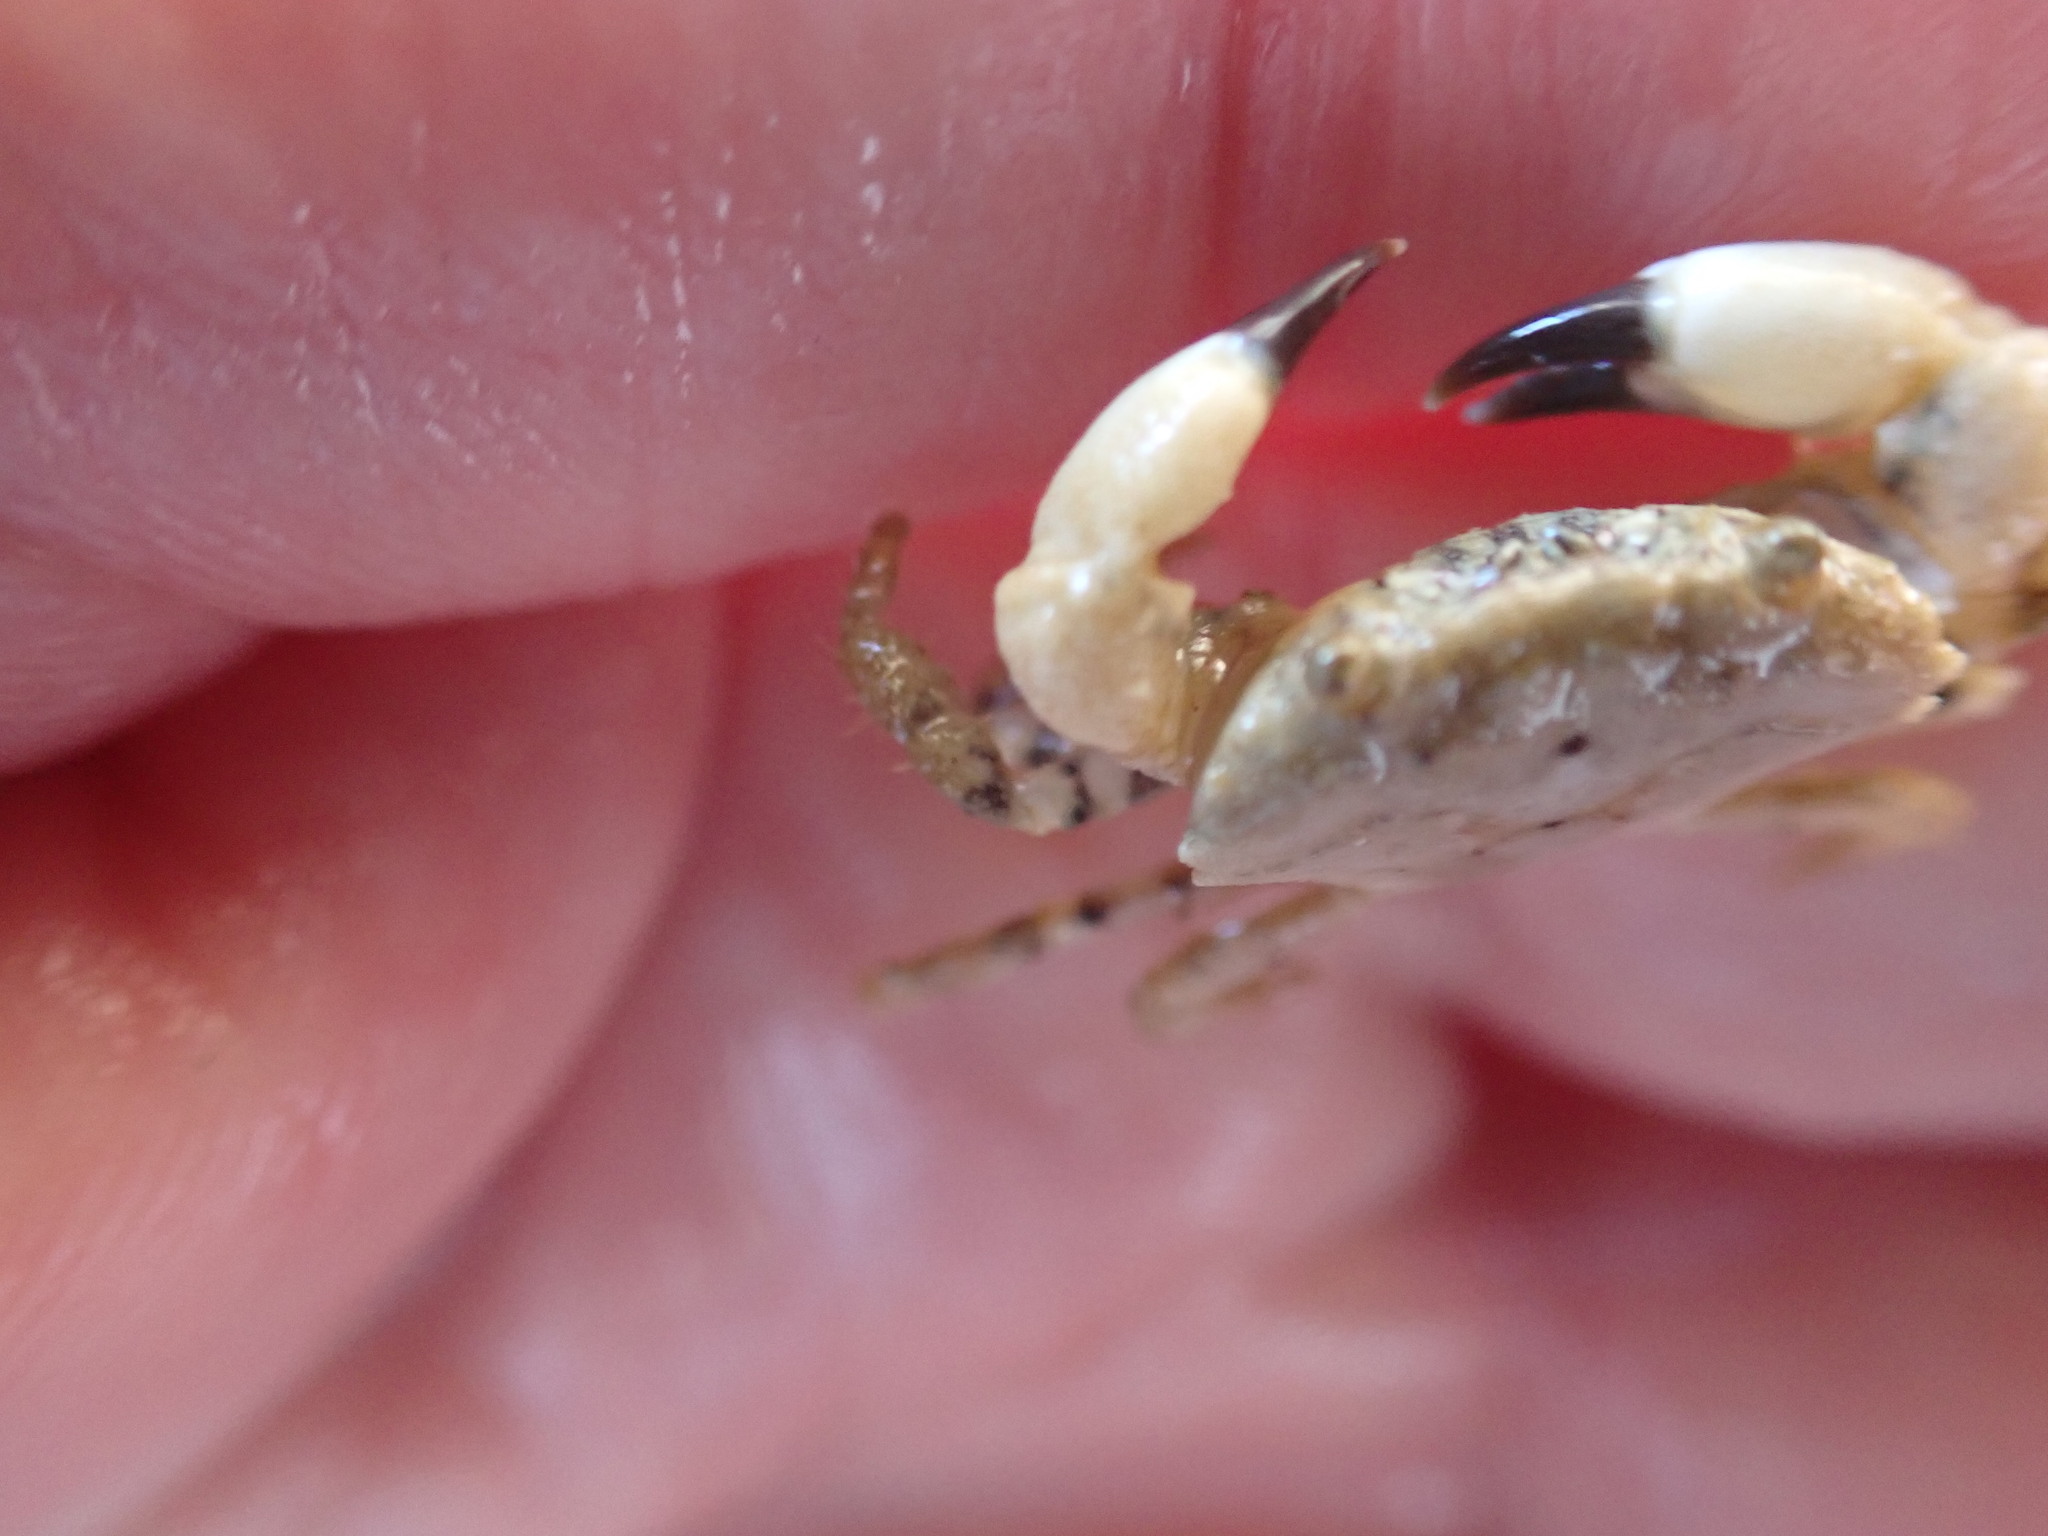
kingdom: Animalia
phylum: Arthropoda
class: Malacostraca
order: Decapoda
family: Oziidae
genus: Ozius
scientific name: Ozius deplanatus
